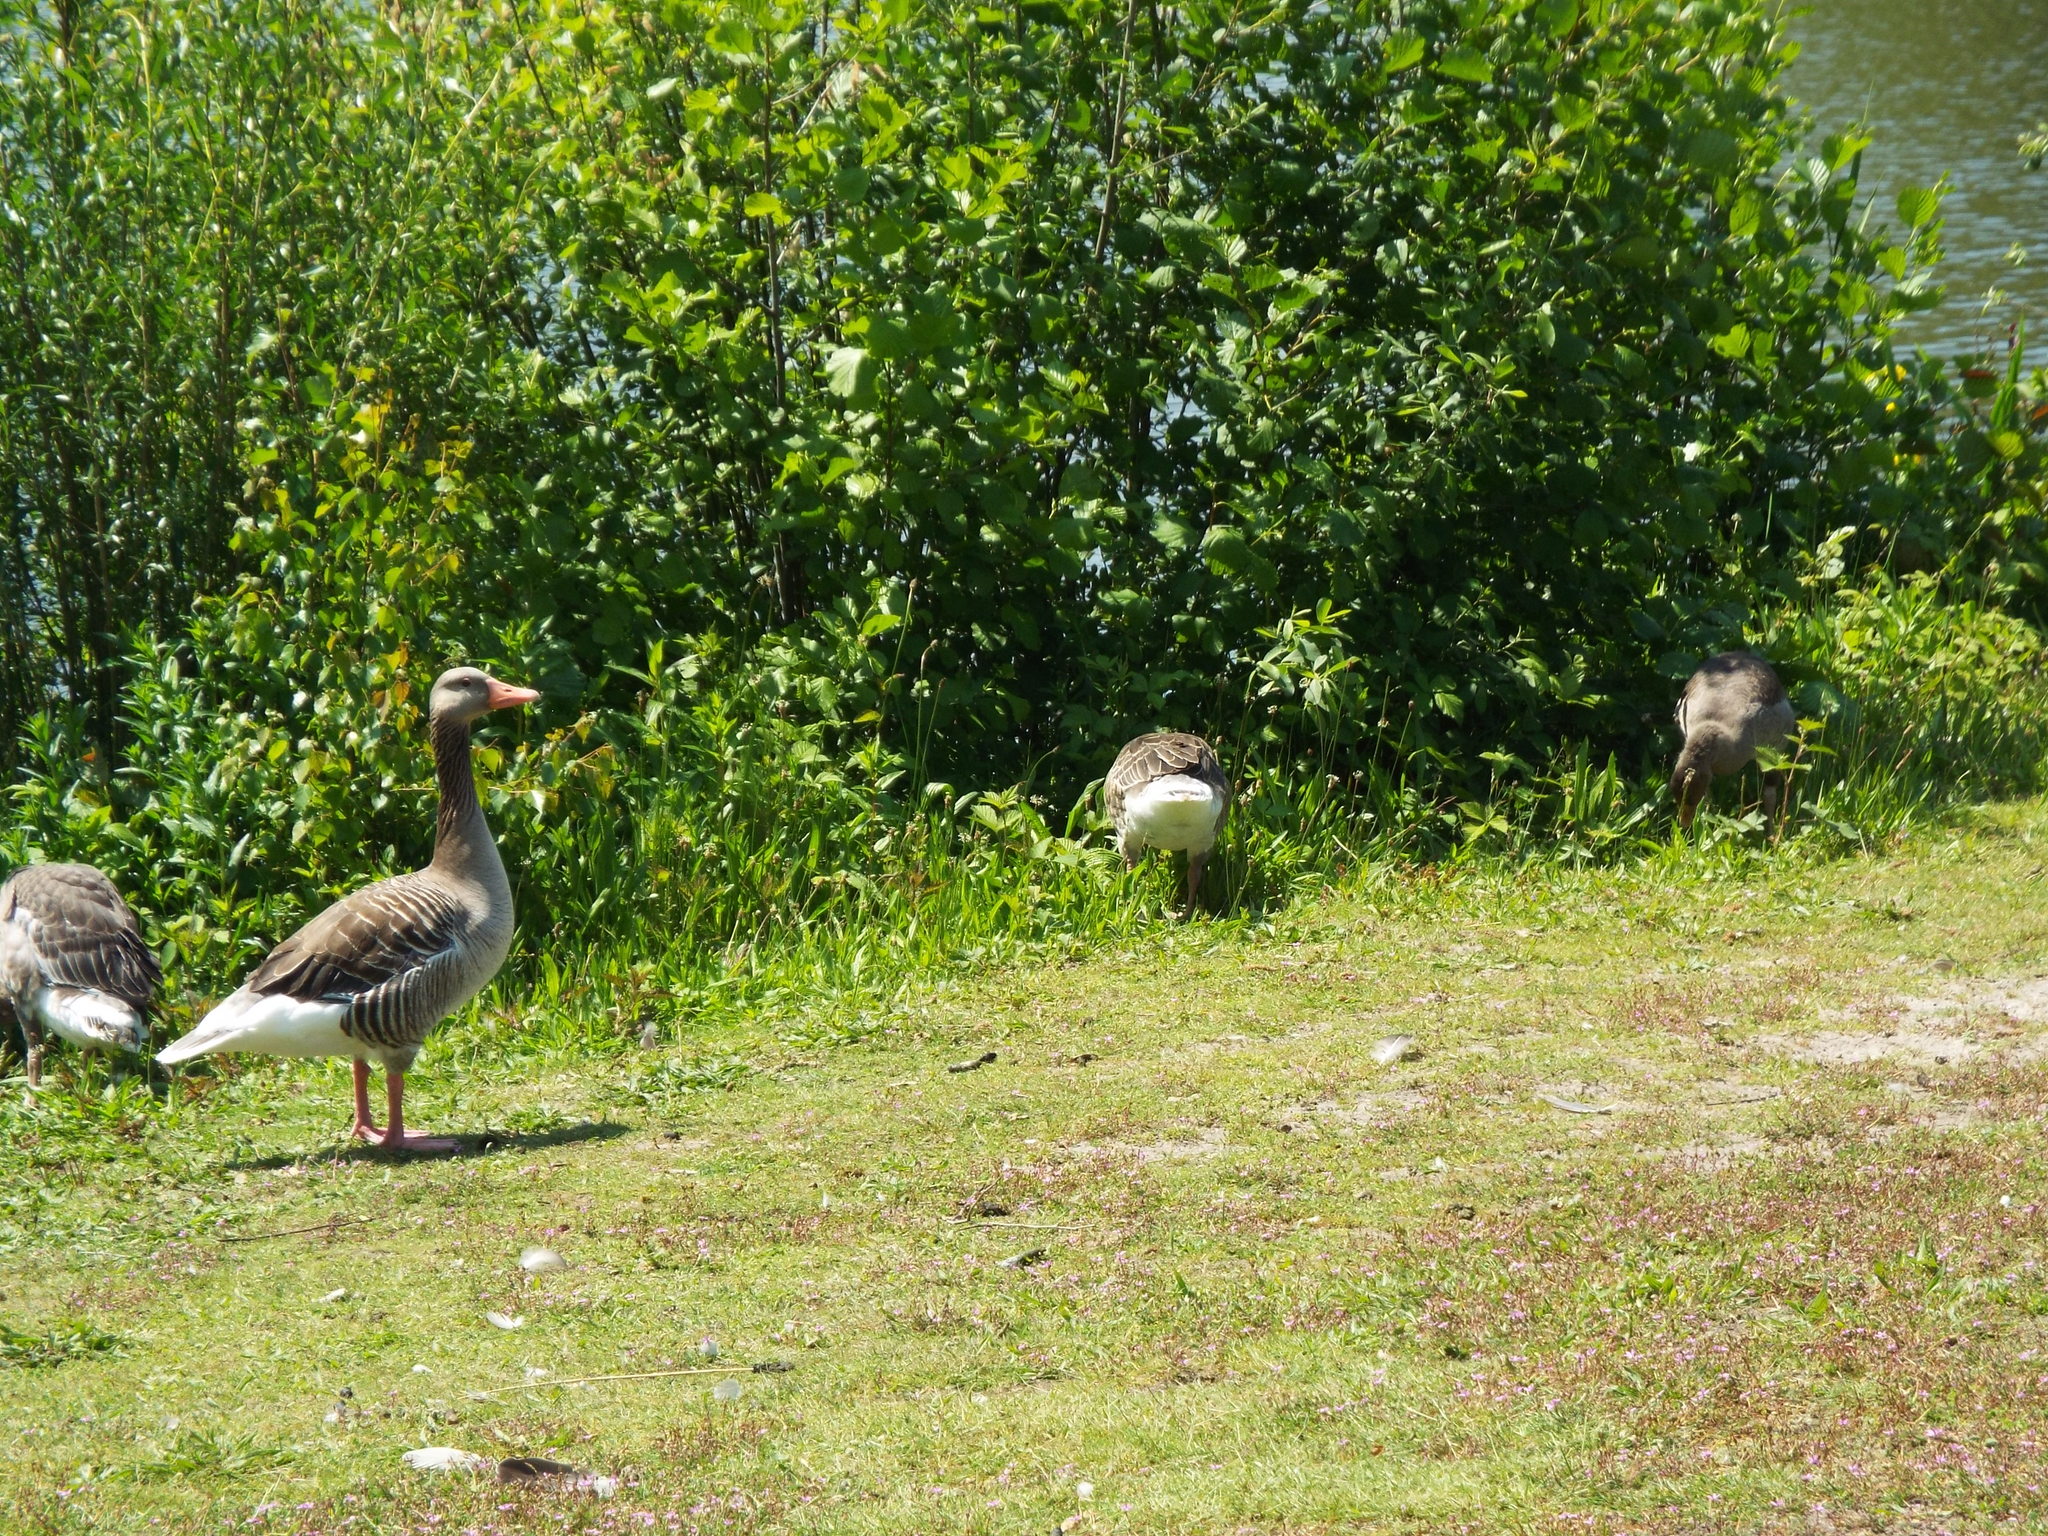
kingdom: Animalia
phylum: Chordata
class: Aves
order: Anseriformes
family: Anatidae
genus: Anser
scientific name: Anser anser
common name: Greylag goose
